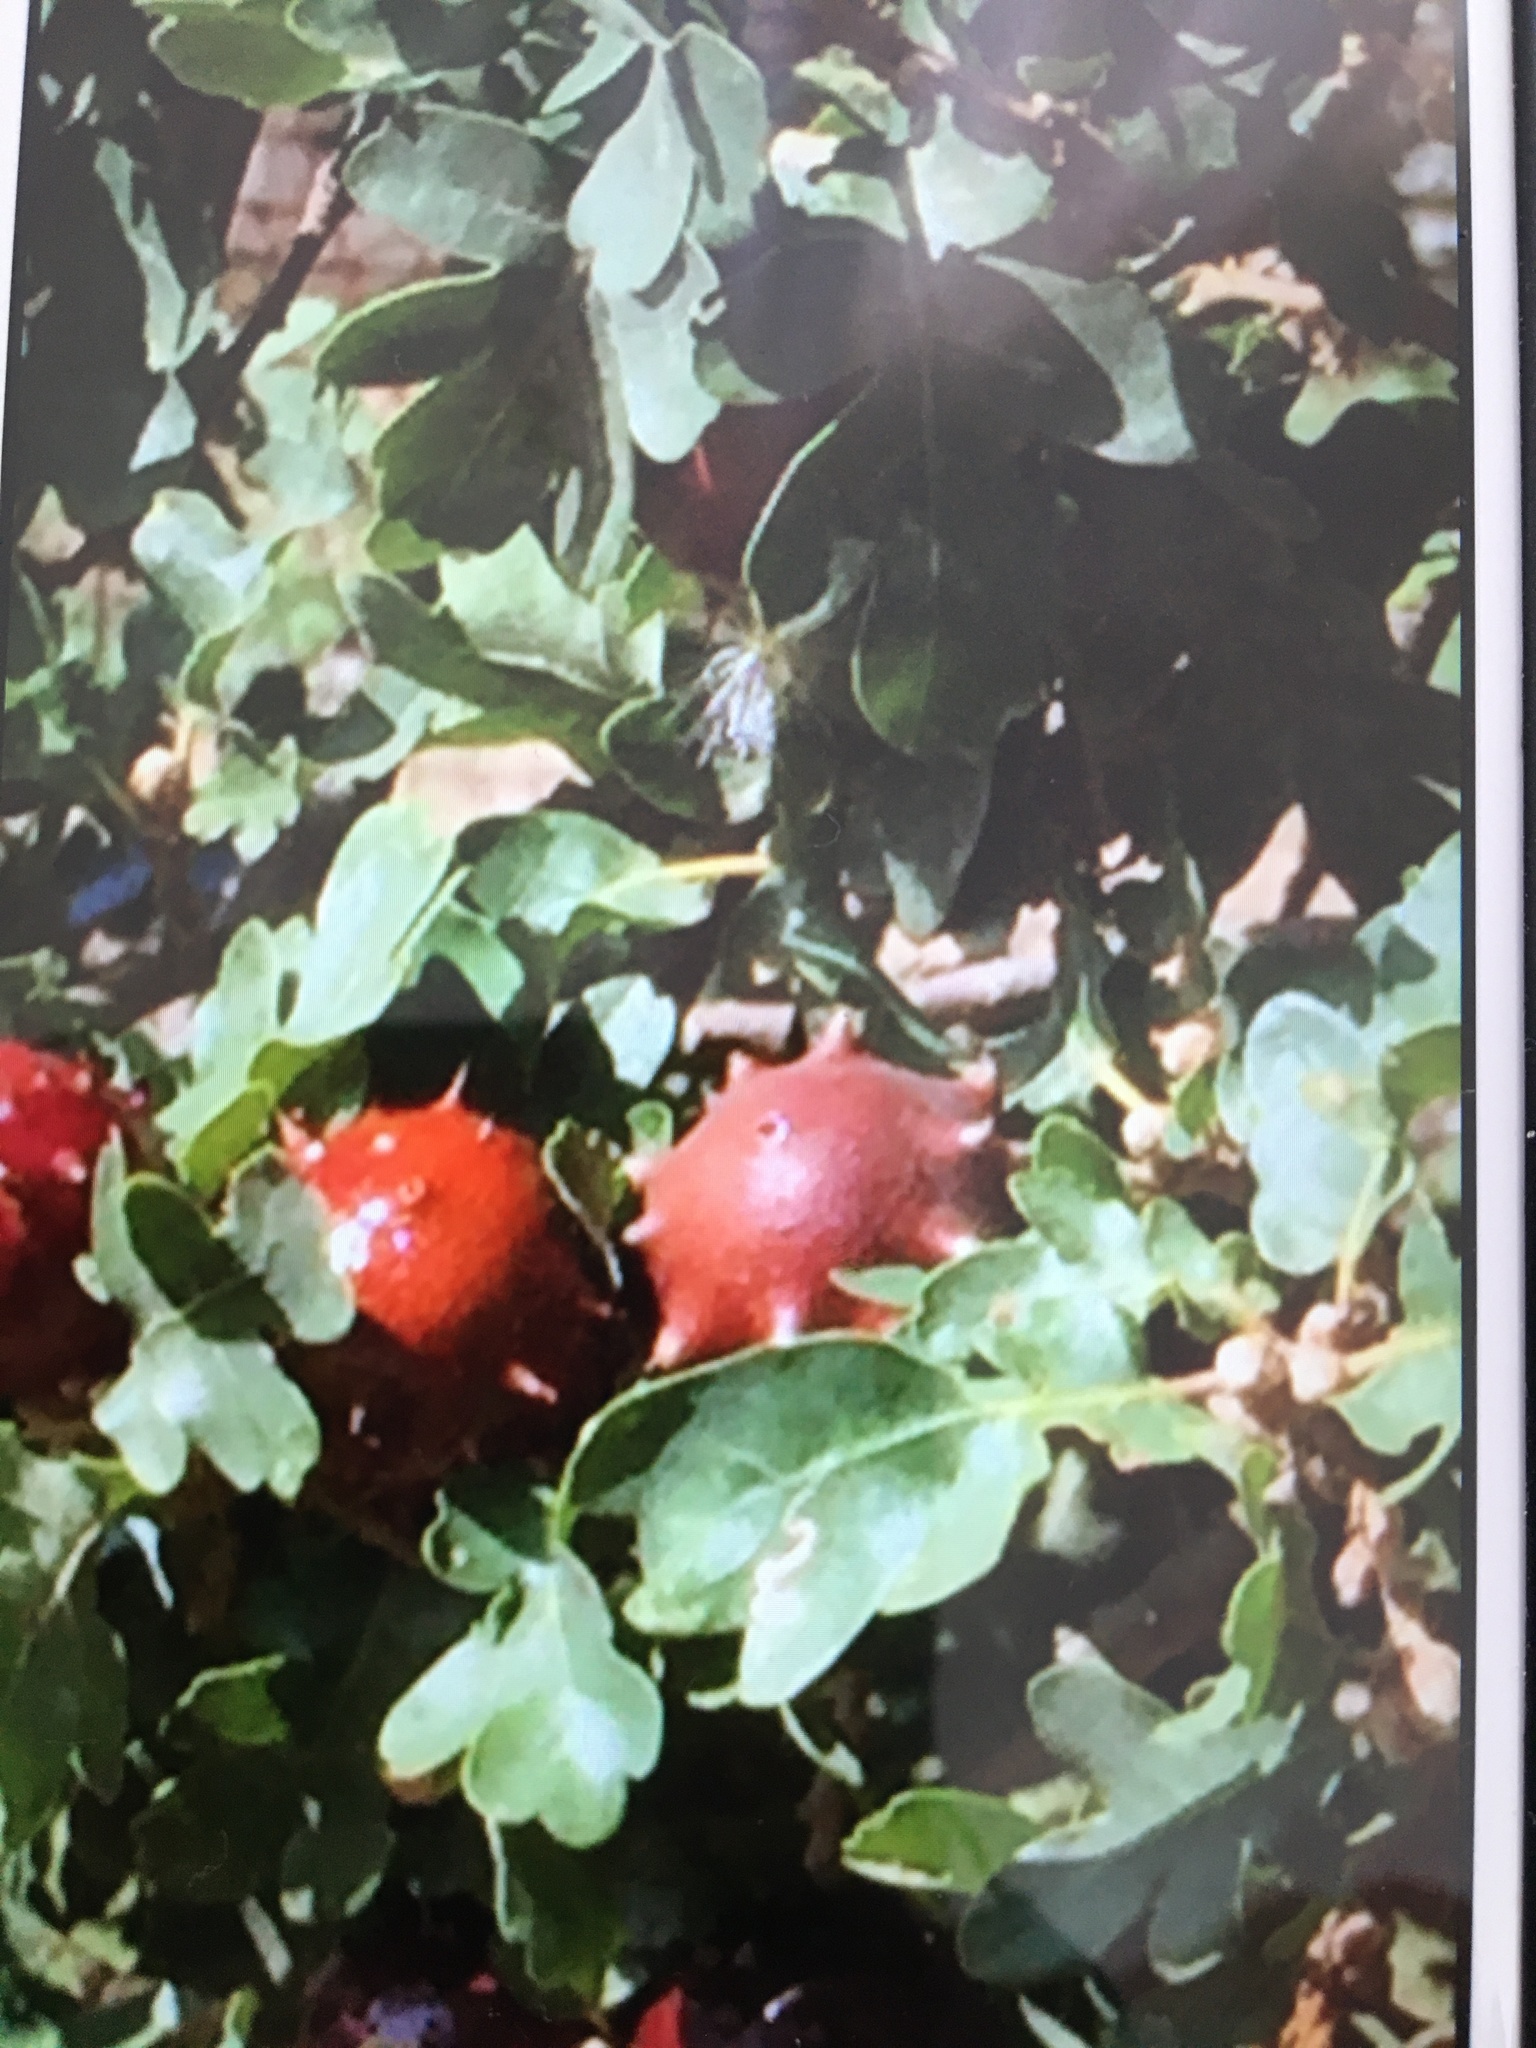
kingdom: Animalia
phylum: Arthropoda
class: Insecta
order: Hymenoptera
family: Cynipidae
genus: Andricus
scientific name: Andricus quercustozae
